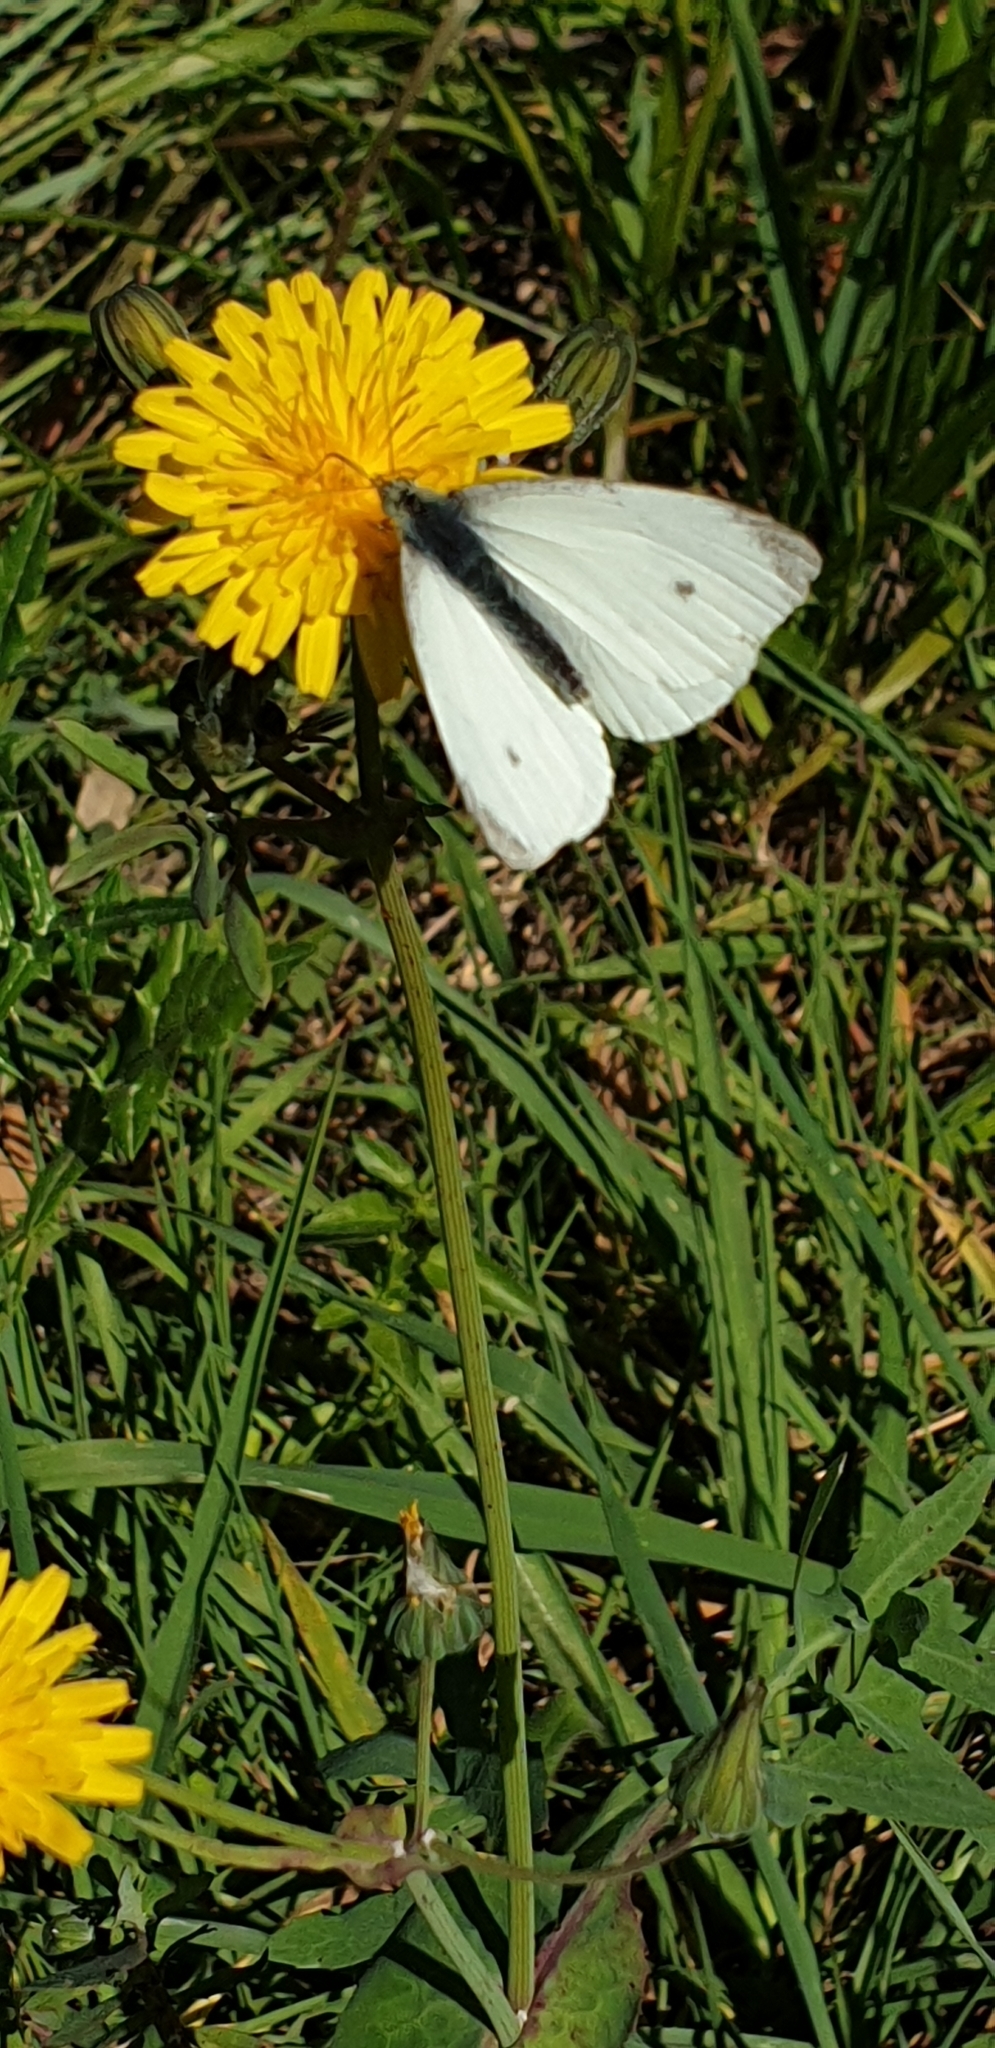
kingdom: Animalia
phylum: Arthropoda
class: Insecta
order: Lepidoptera
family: Pieridae
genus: Pieris
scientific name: Pieris rapae
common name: Small white
